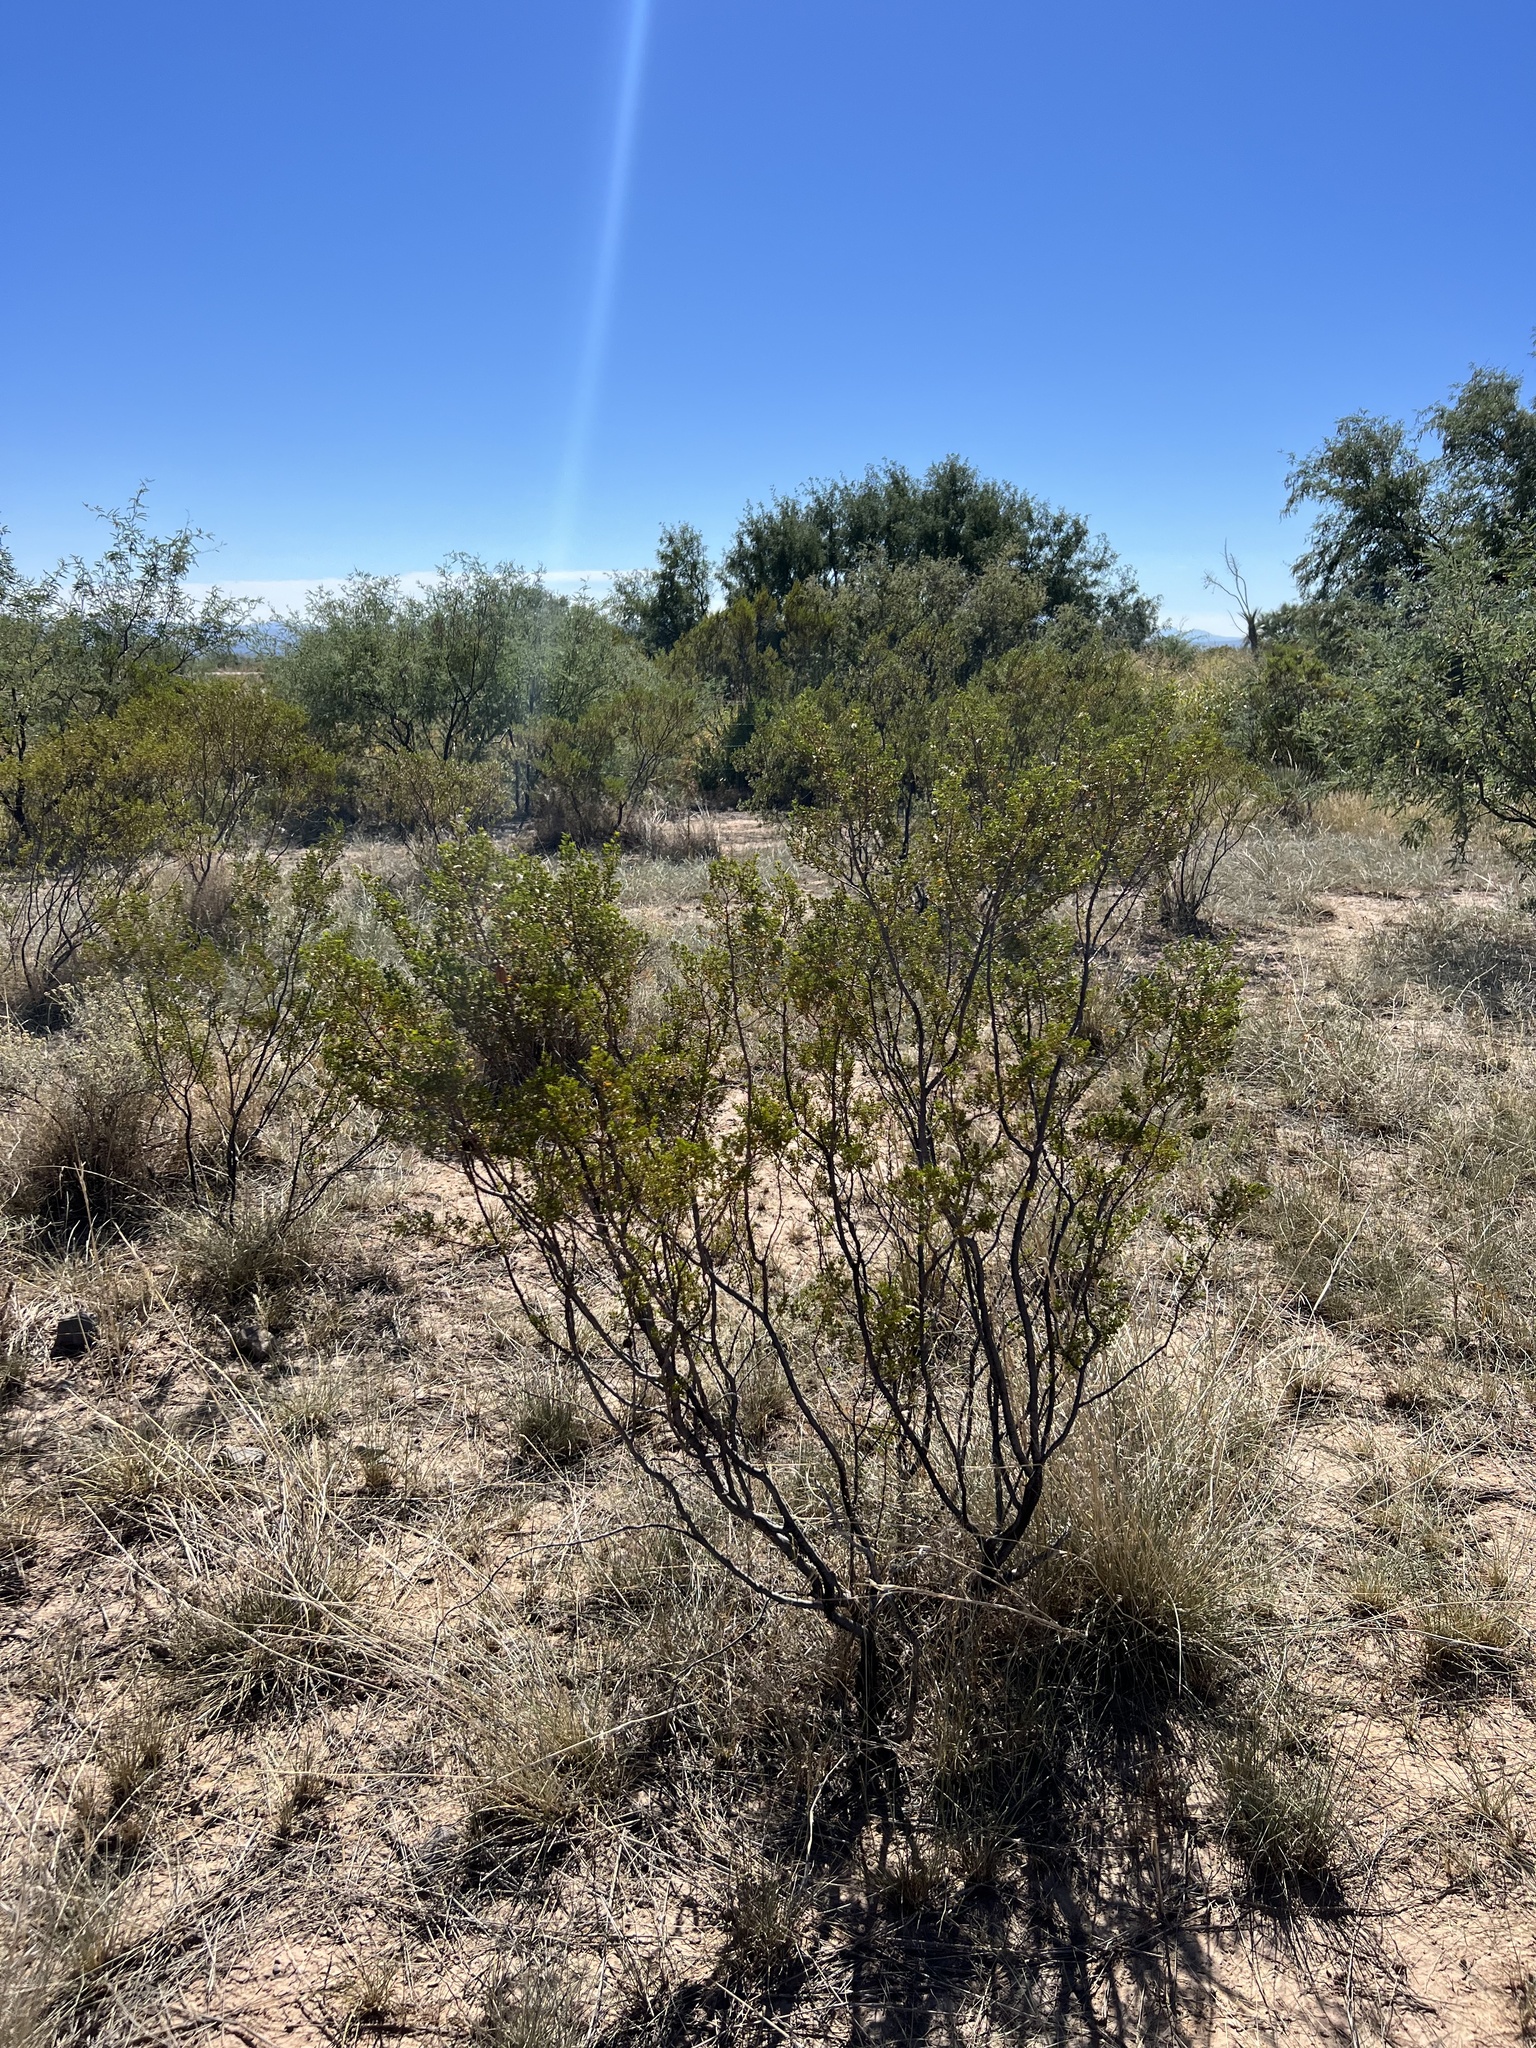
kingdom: Plantae
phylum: Tracheophyta
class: Magnoliopsida
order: Zygophyllales
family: Zygophyllaceae
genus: Larrea
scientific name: Larrea tridentata
